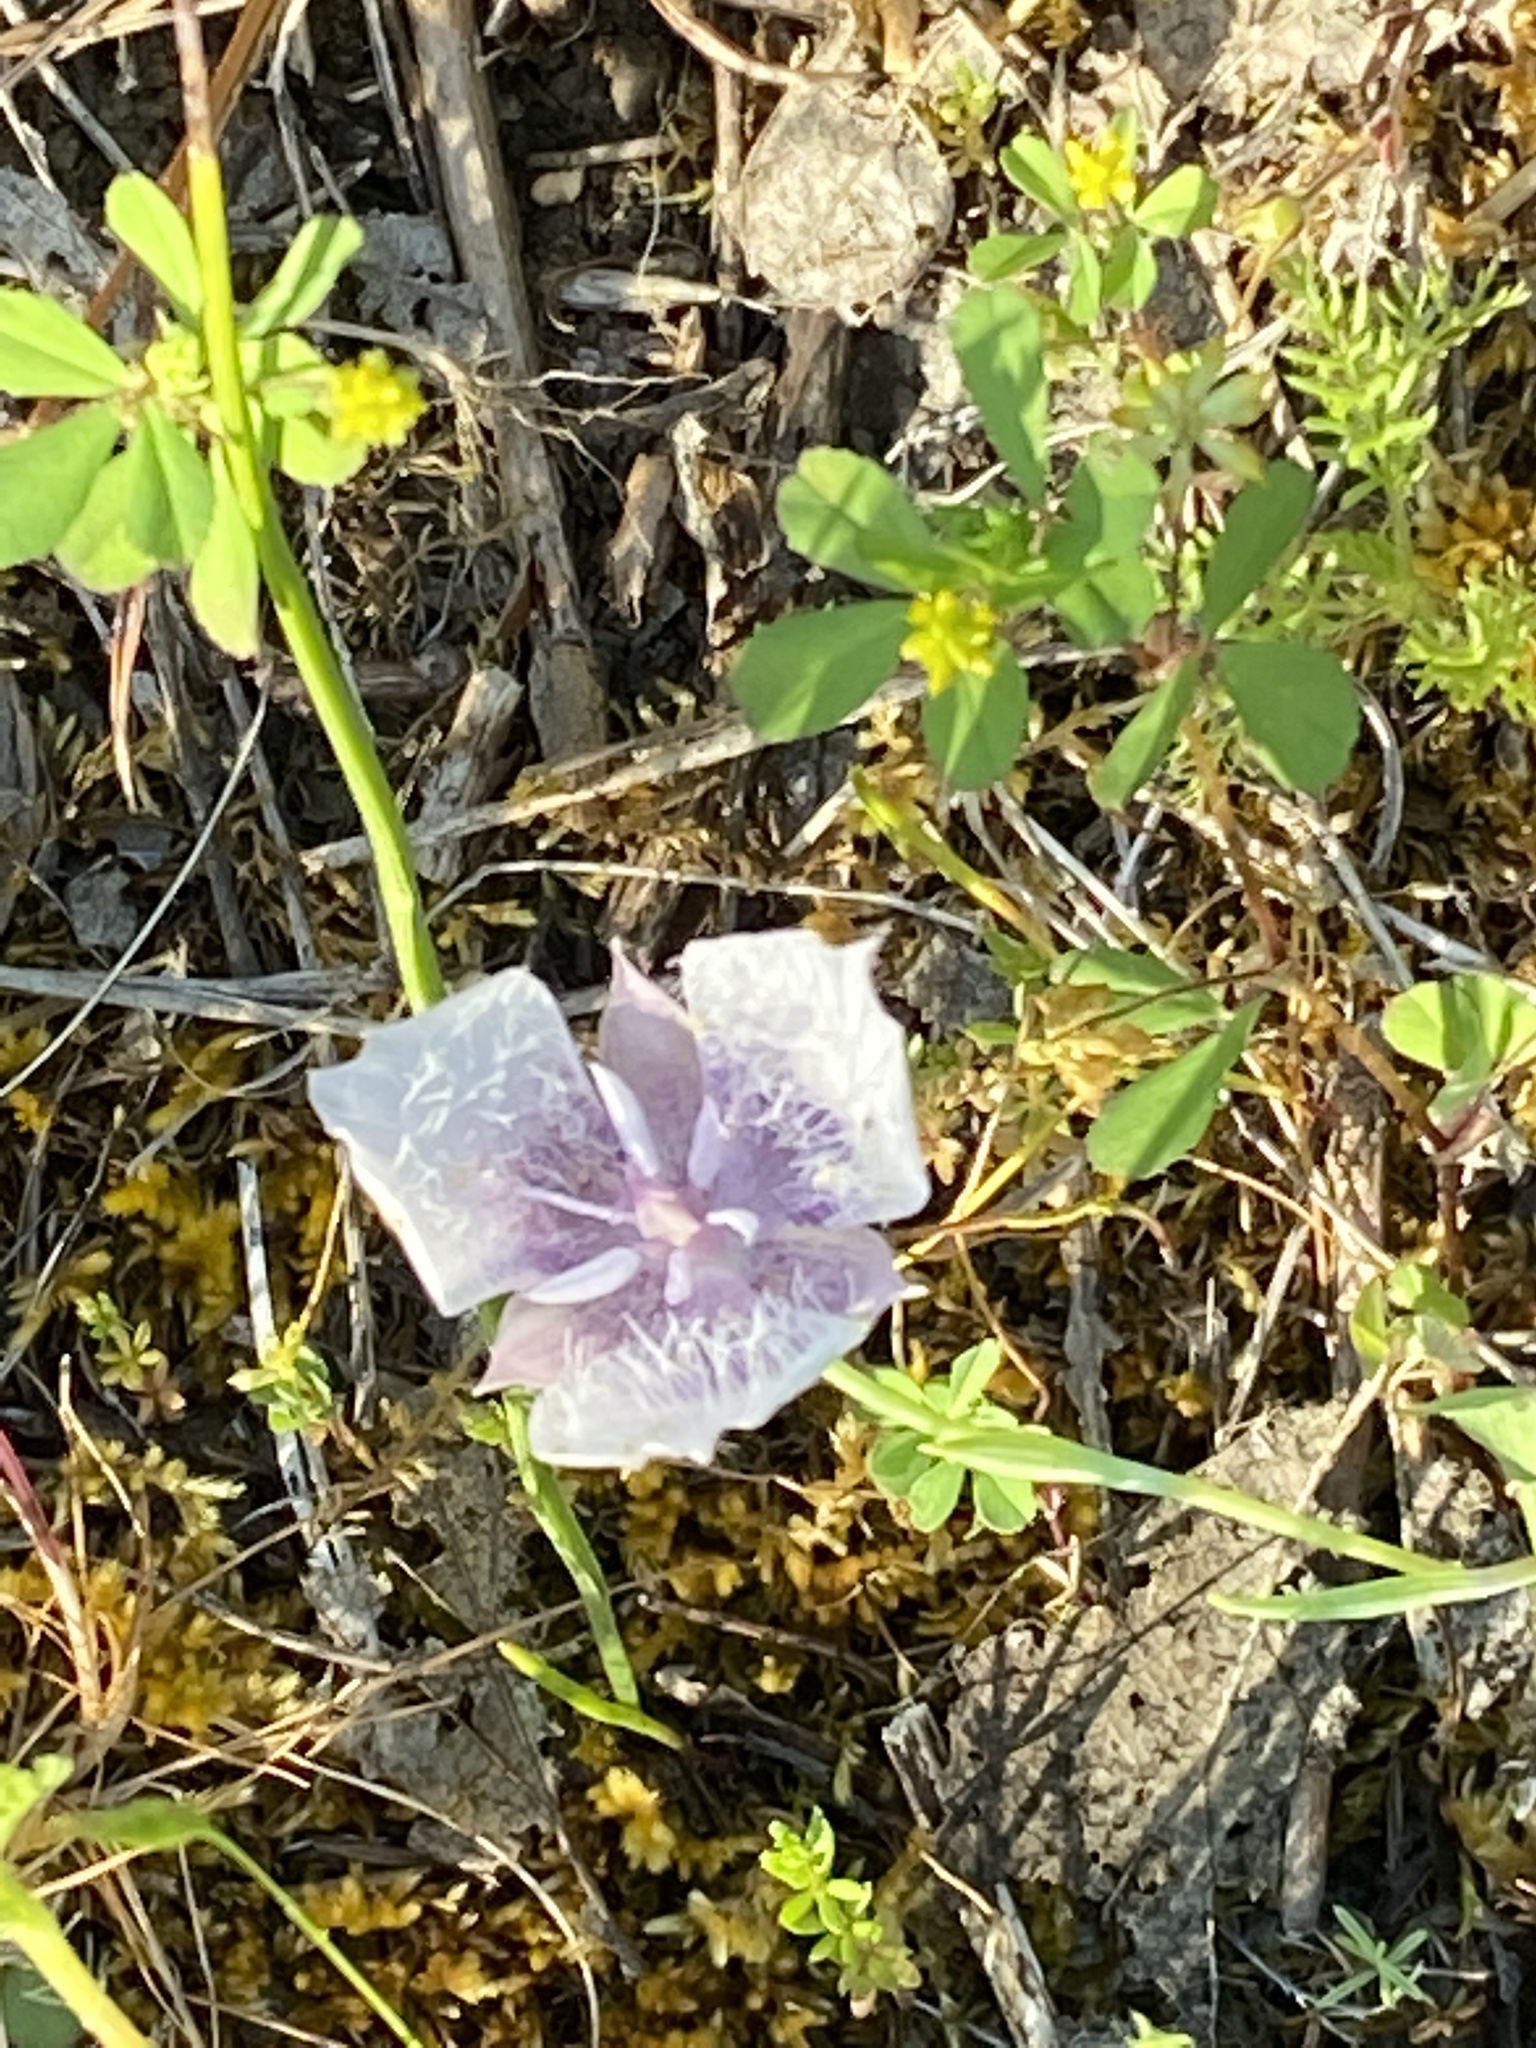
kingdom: Plantae
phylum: Tracheophyta
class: Liliopsida
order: Liliales
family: Liliaceae
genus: Calochortus
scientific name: Calochortus tolmiei
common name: Pussy-ears
